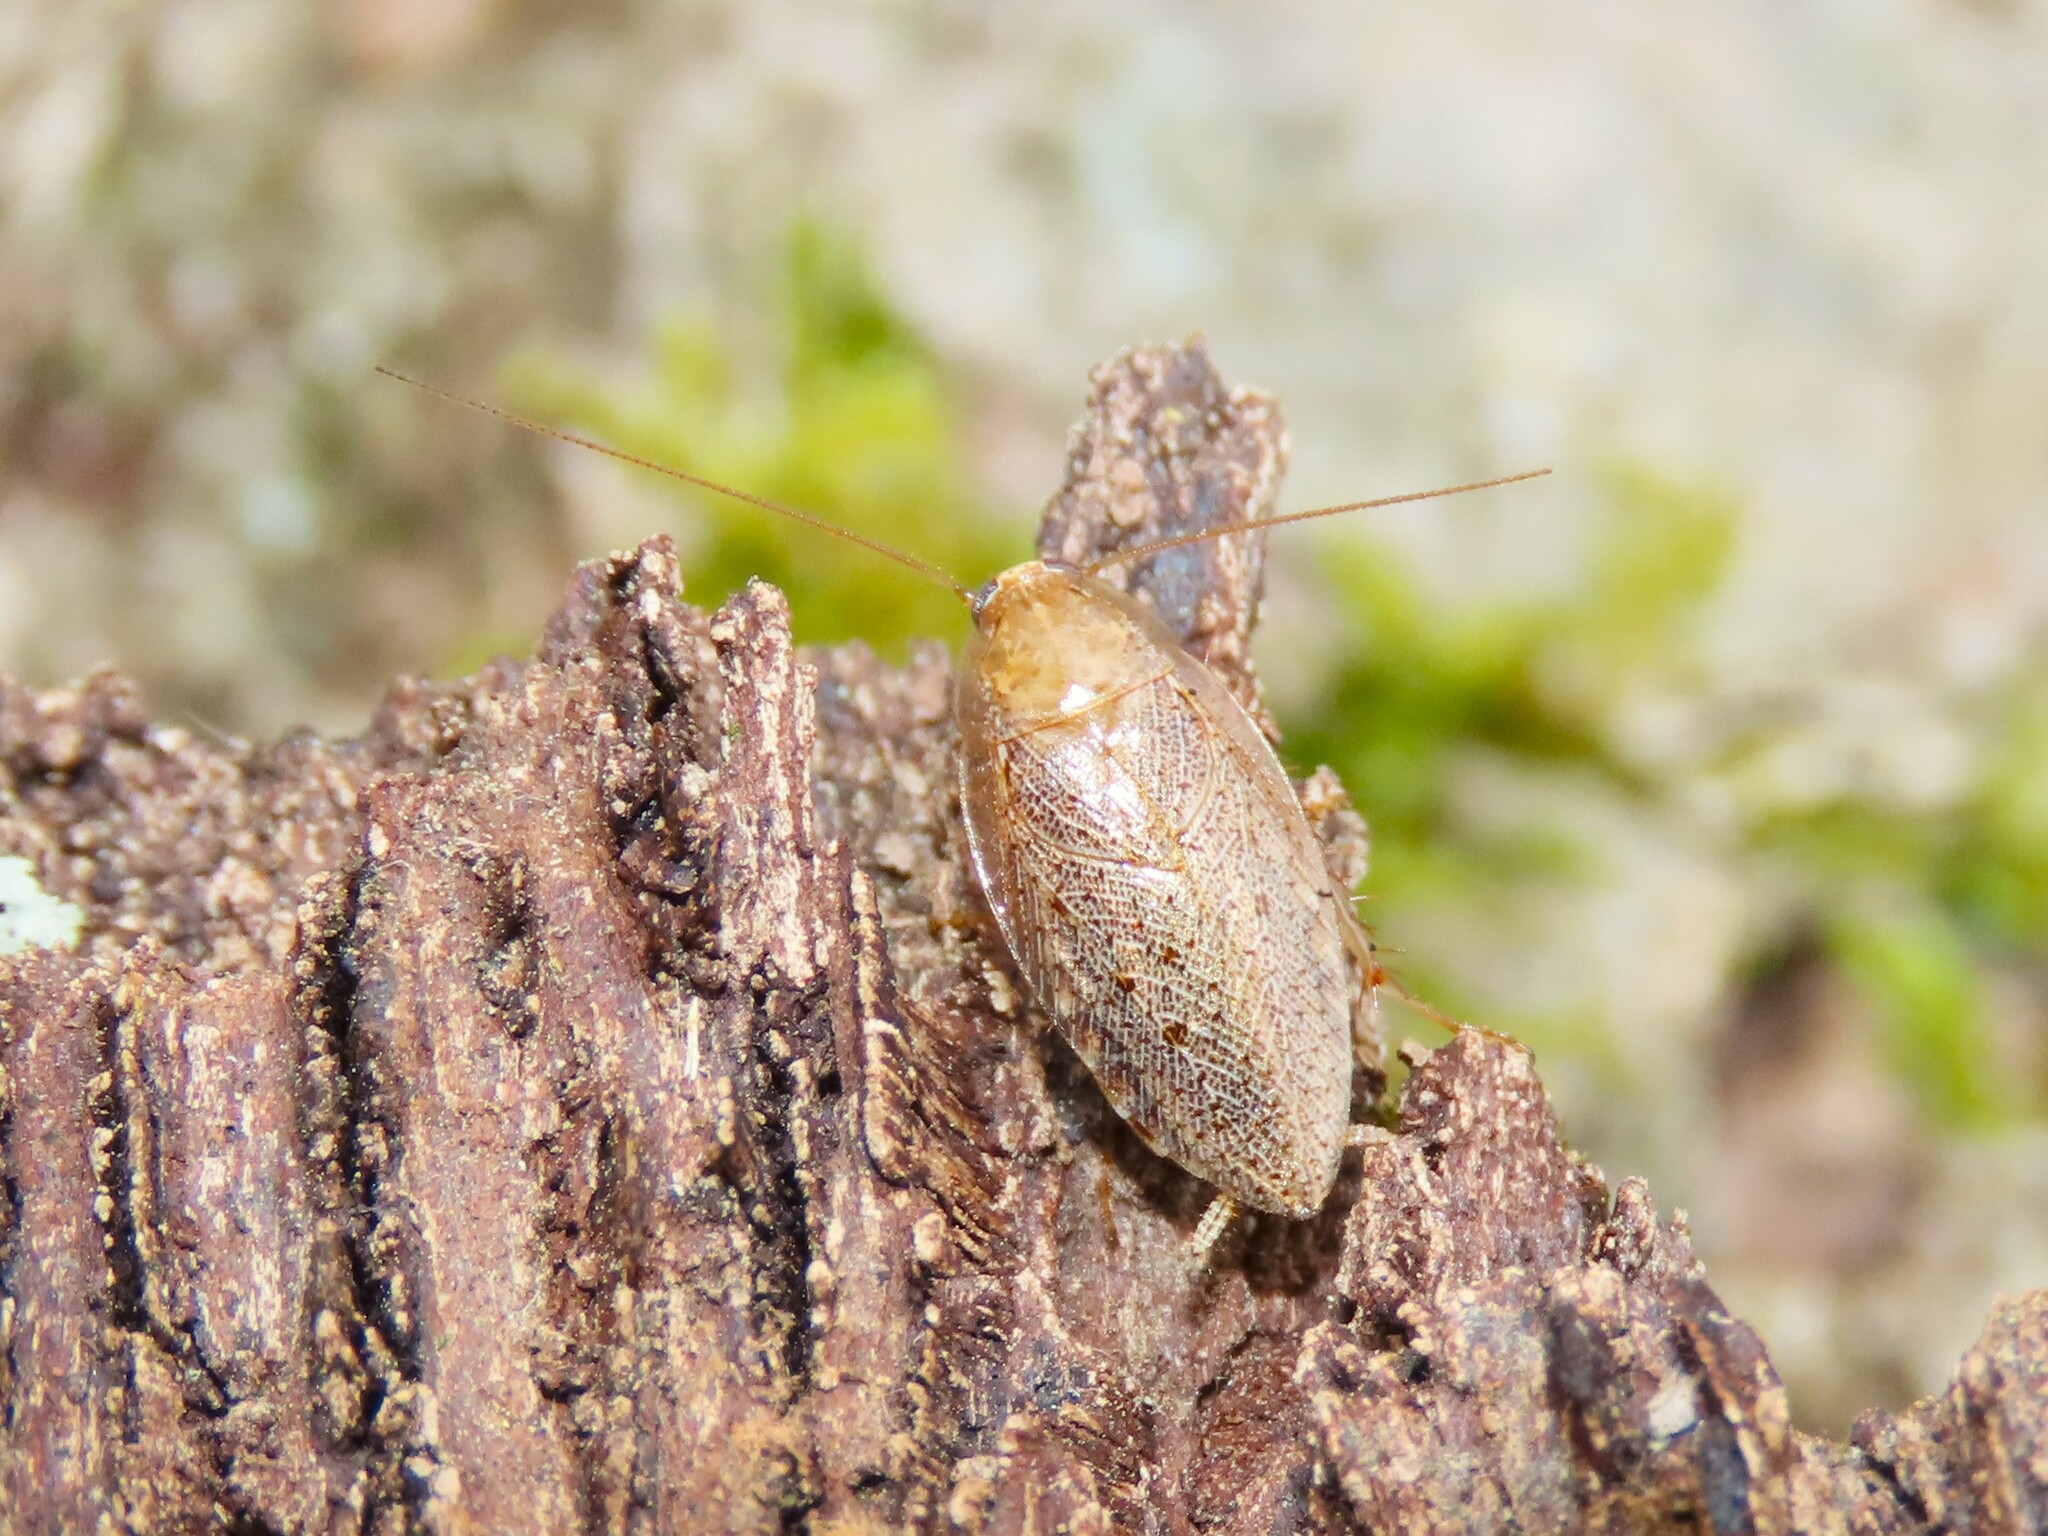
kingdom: Animalia
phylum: Arthropoda
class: Insecta
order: Blattodea
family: Ectobiidae
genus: Ectobius
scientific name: Ectobius pallidus
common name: Tawny cockroach
